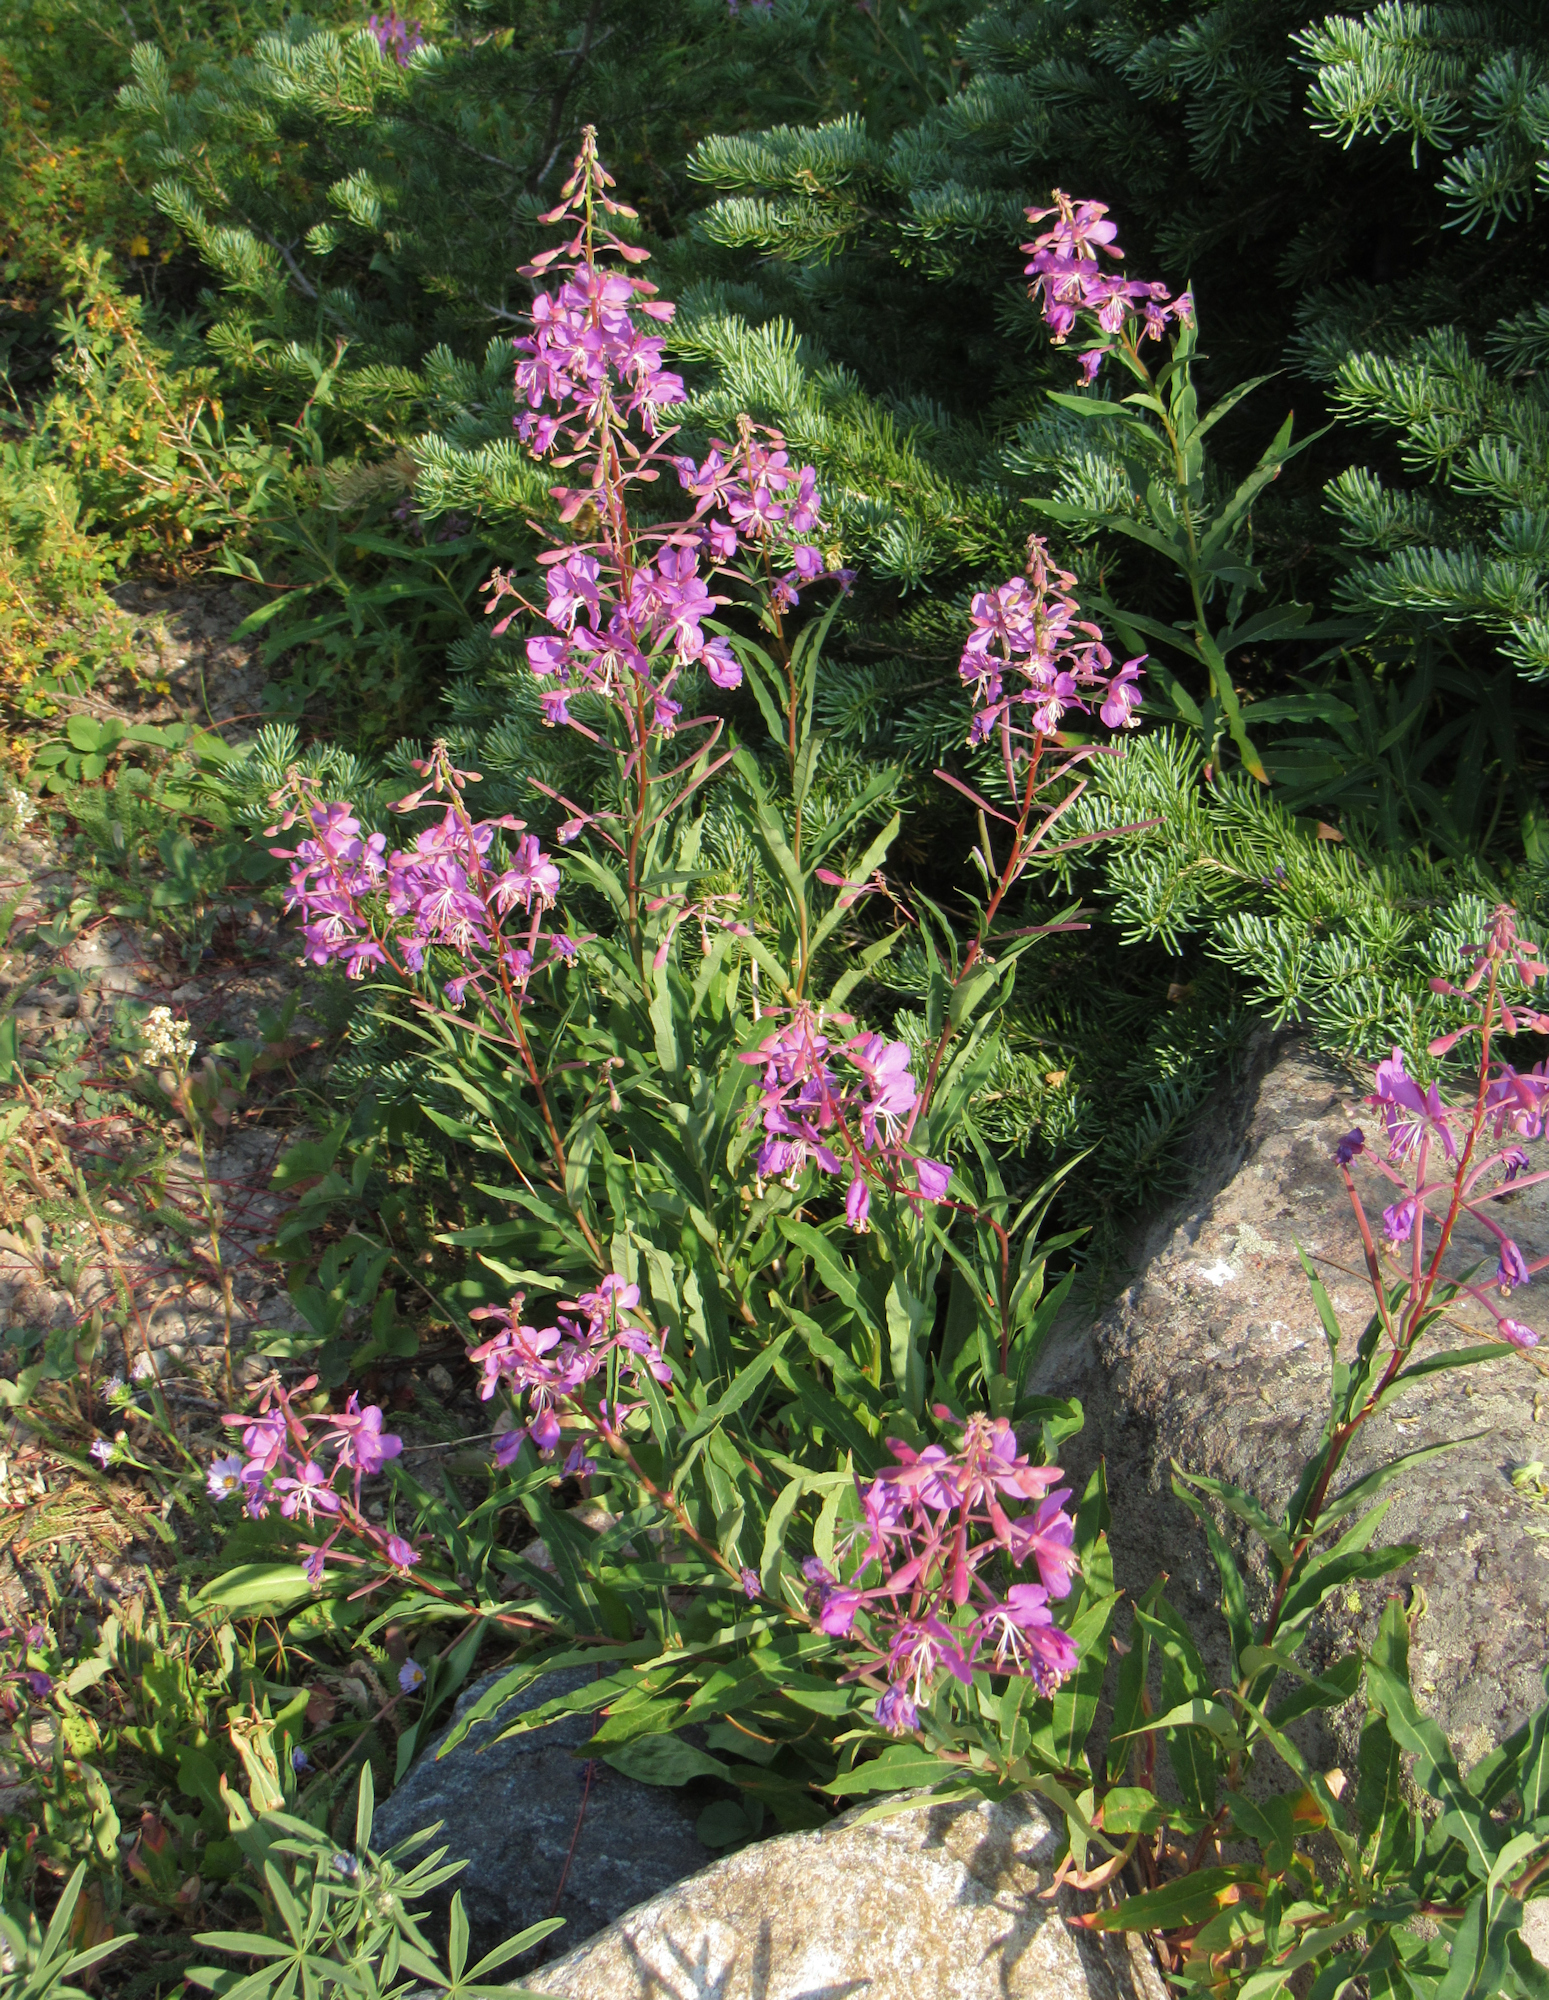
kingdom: Plantae
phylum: Tracheophyta
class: Magnoliopsida
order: Myrtales
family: Onagraceae
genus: Chamaenerion
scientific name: Chamaenerion angustifolium
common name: Fireweed
